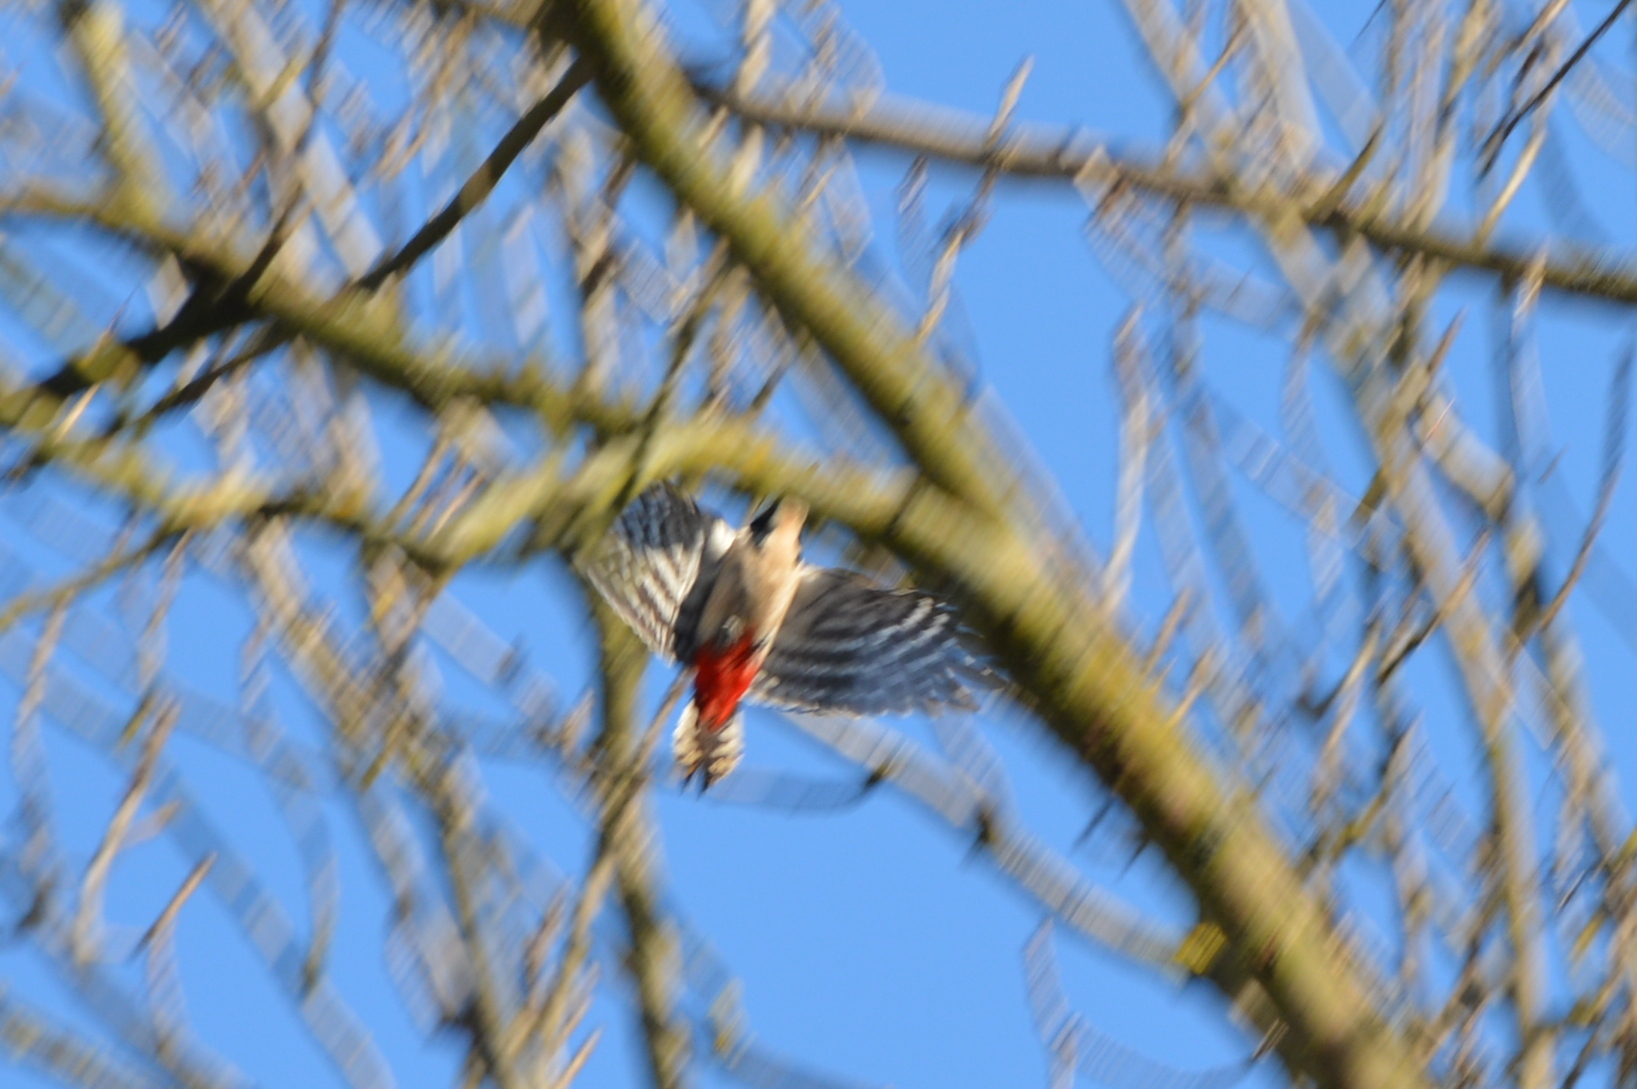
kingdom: Animalia
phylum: Chordata
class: Aves
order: Piciformes
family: Picidae
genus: Dendrocopos
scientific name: Dendrocopos major
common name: Great spotted woodpecker
